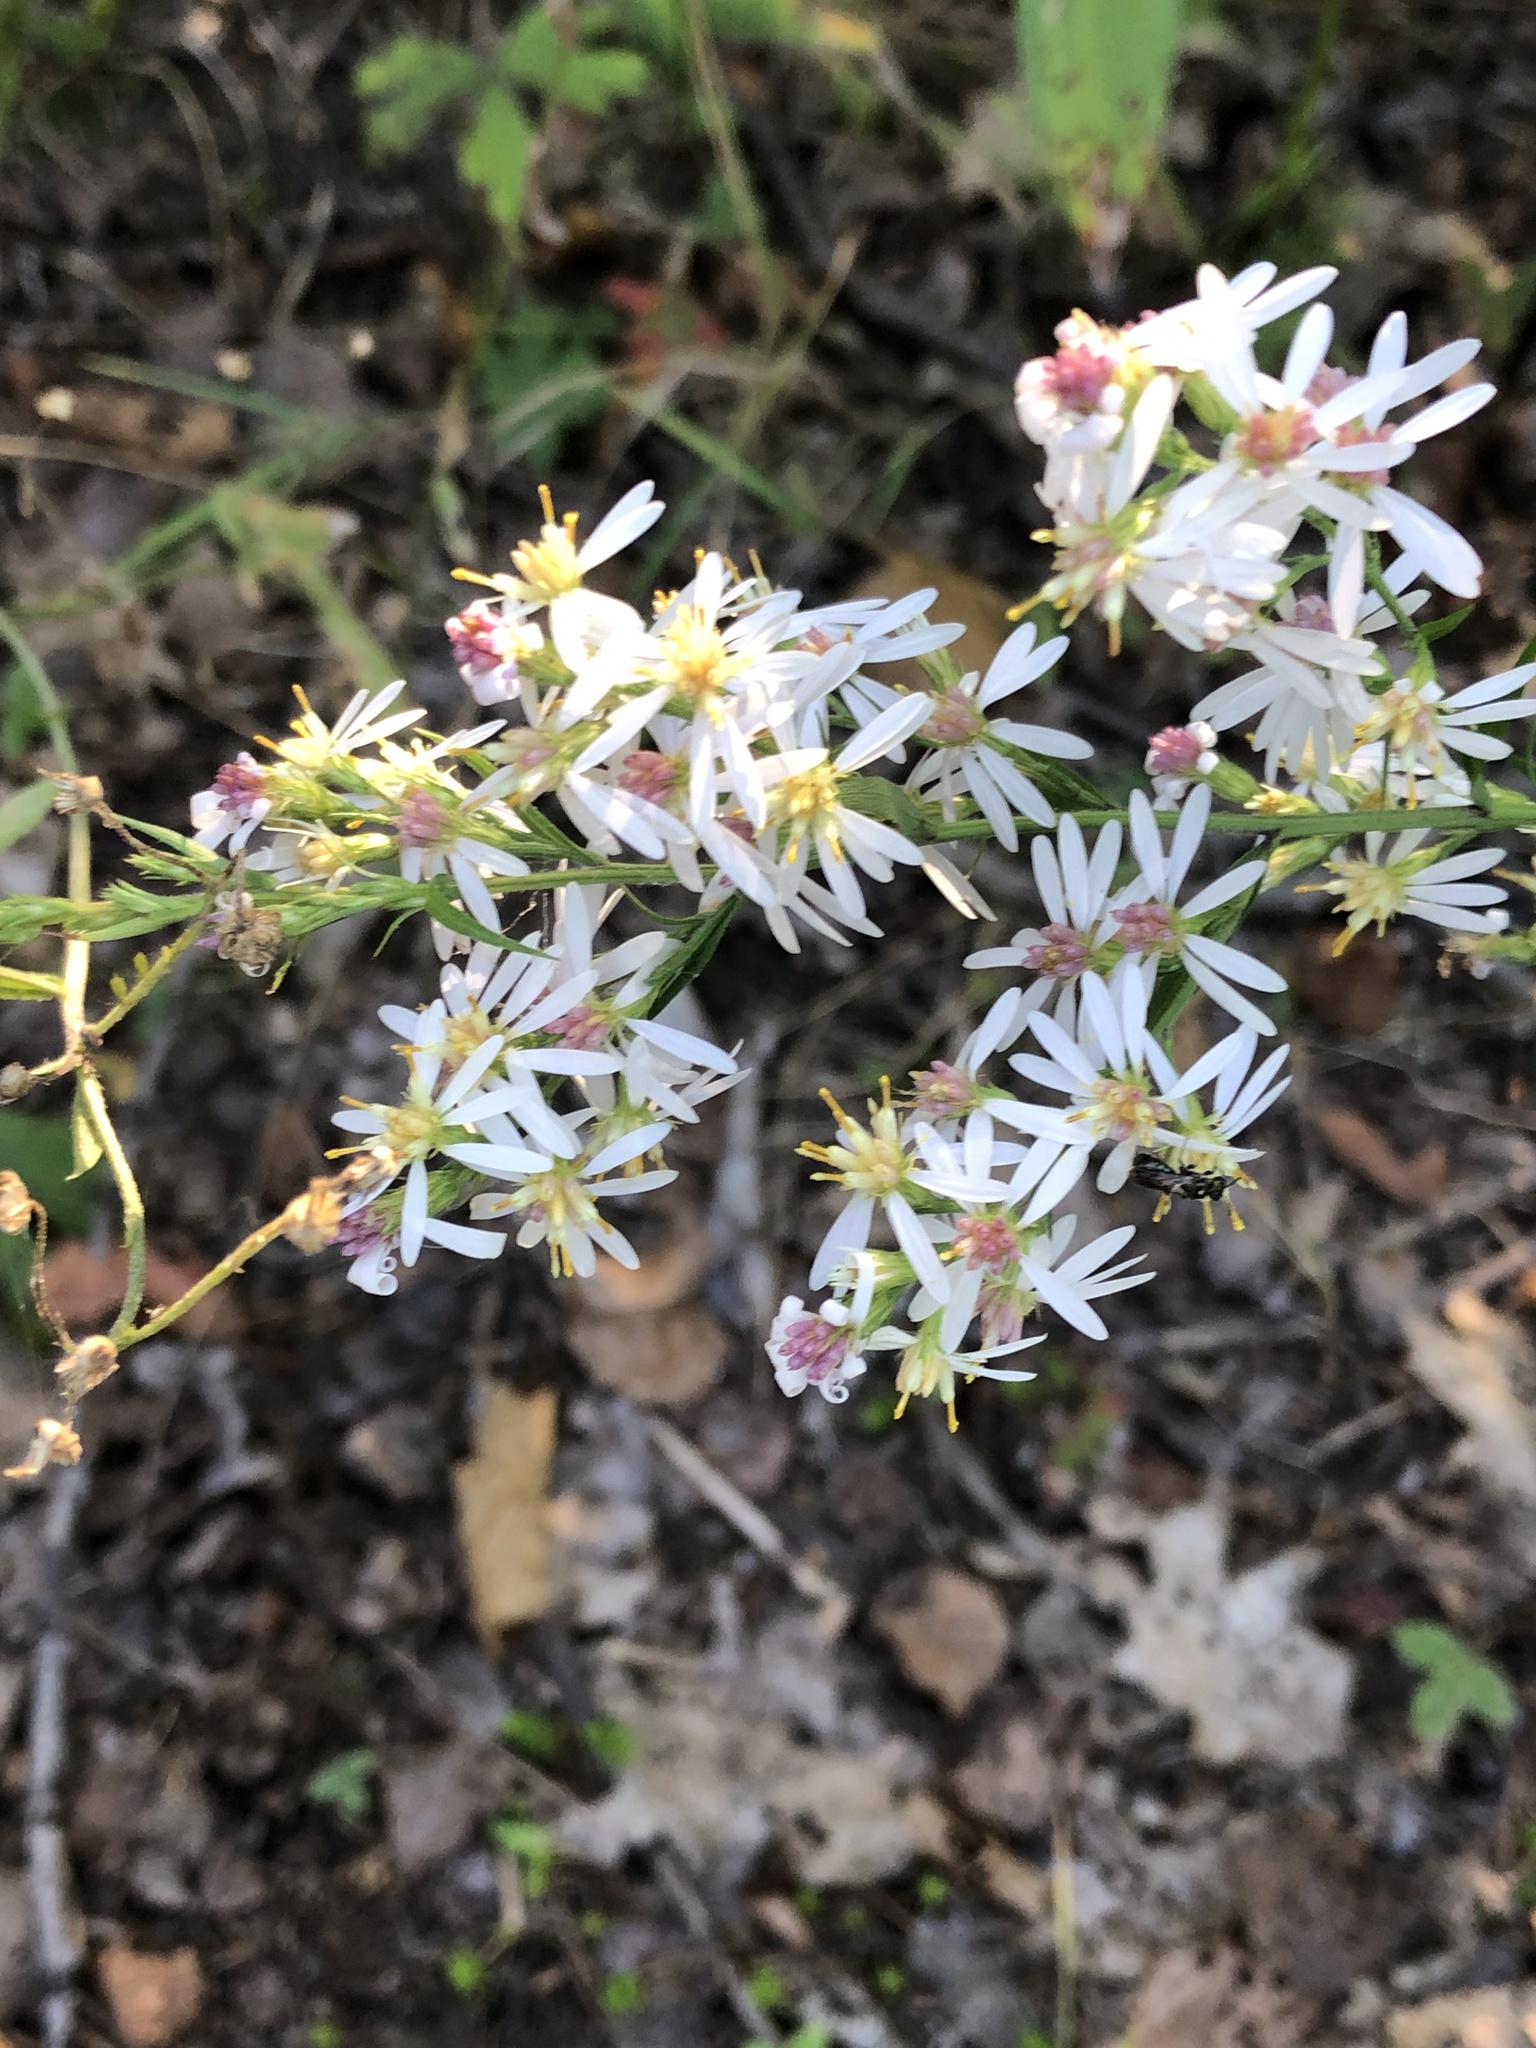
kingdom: Plantae
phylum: Tracheophyta
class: Magnoliopsida
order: Asterales
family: Asteraceae
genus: Symphyotrichum
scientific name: Symphyotrichum urophyllum
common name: Arrow-leaved aster
